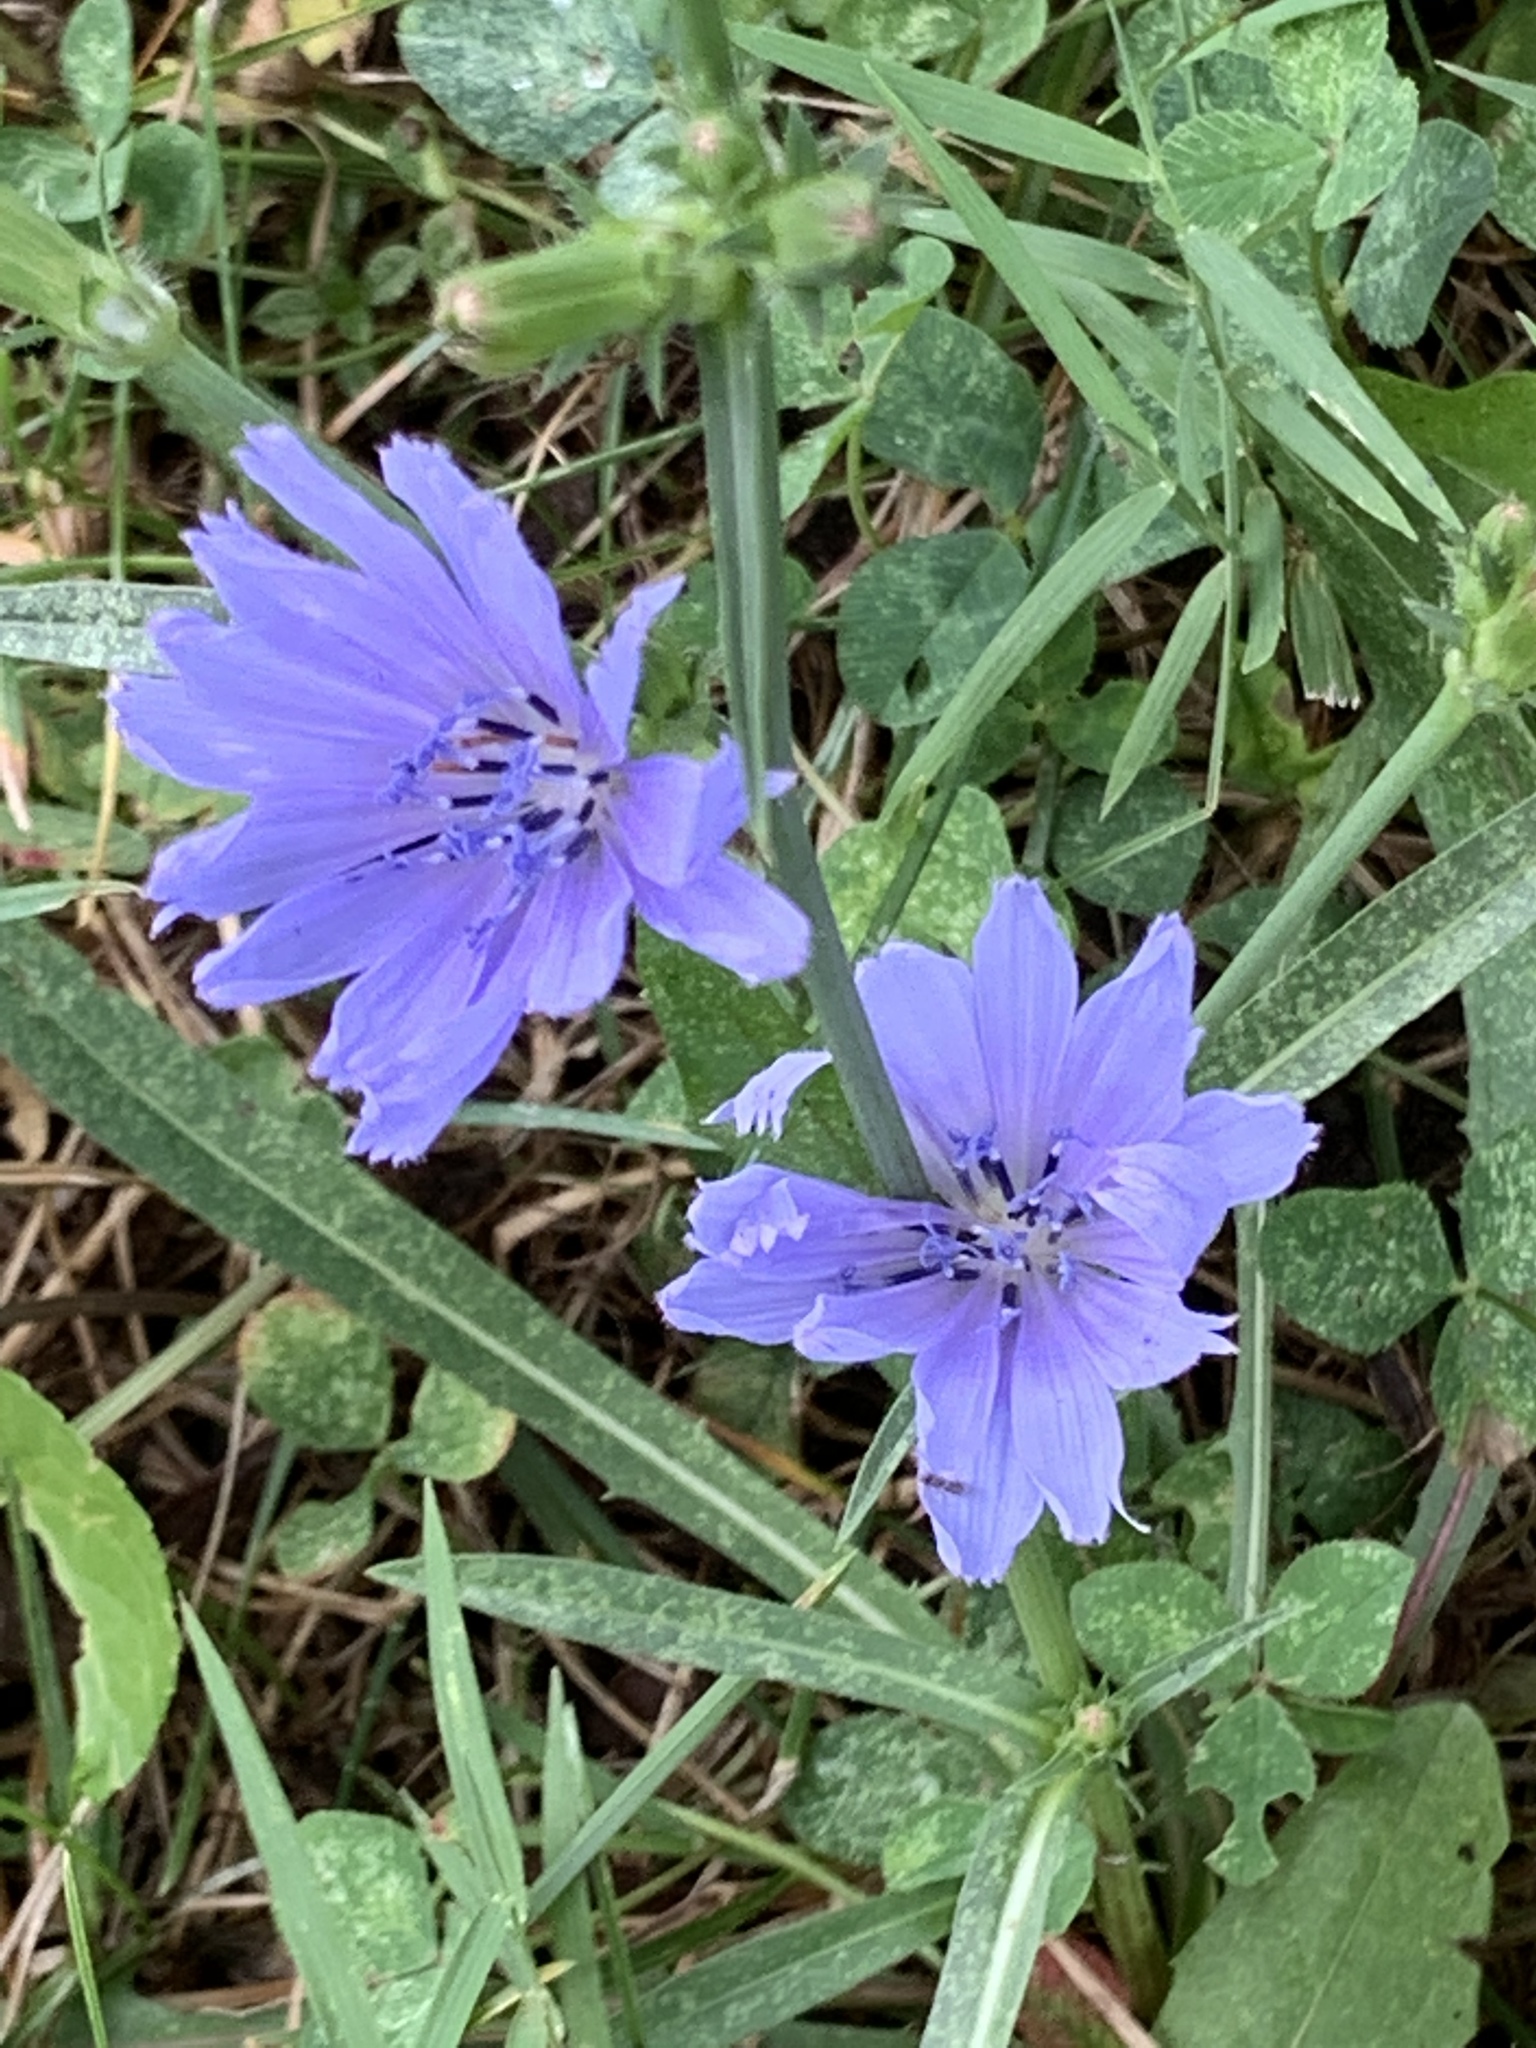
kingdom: Plantae
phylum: Tracheophyta
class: Magnoliopsida
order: Asterales
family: Asteraceae
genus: Cichorium
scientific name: Cichorium intybus
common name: Chicory
